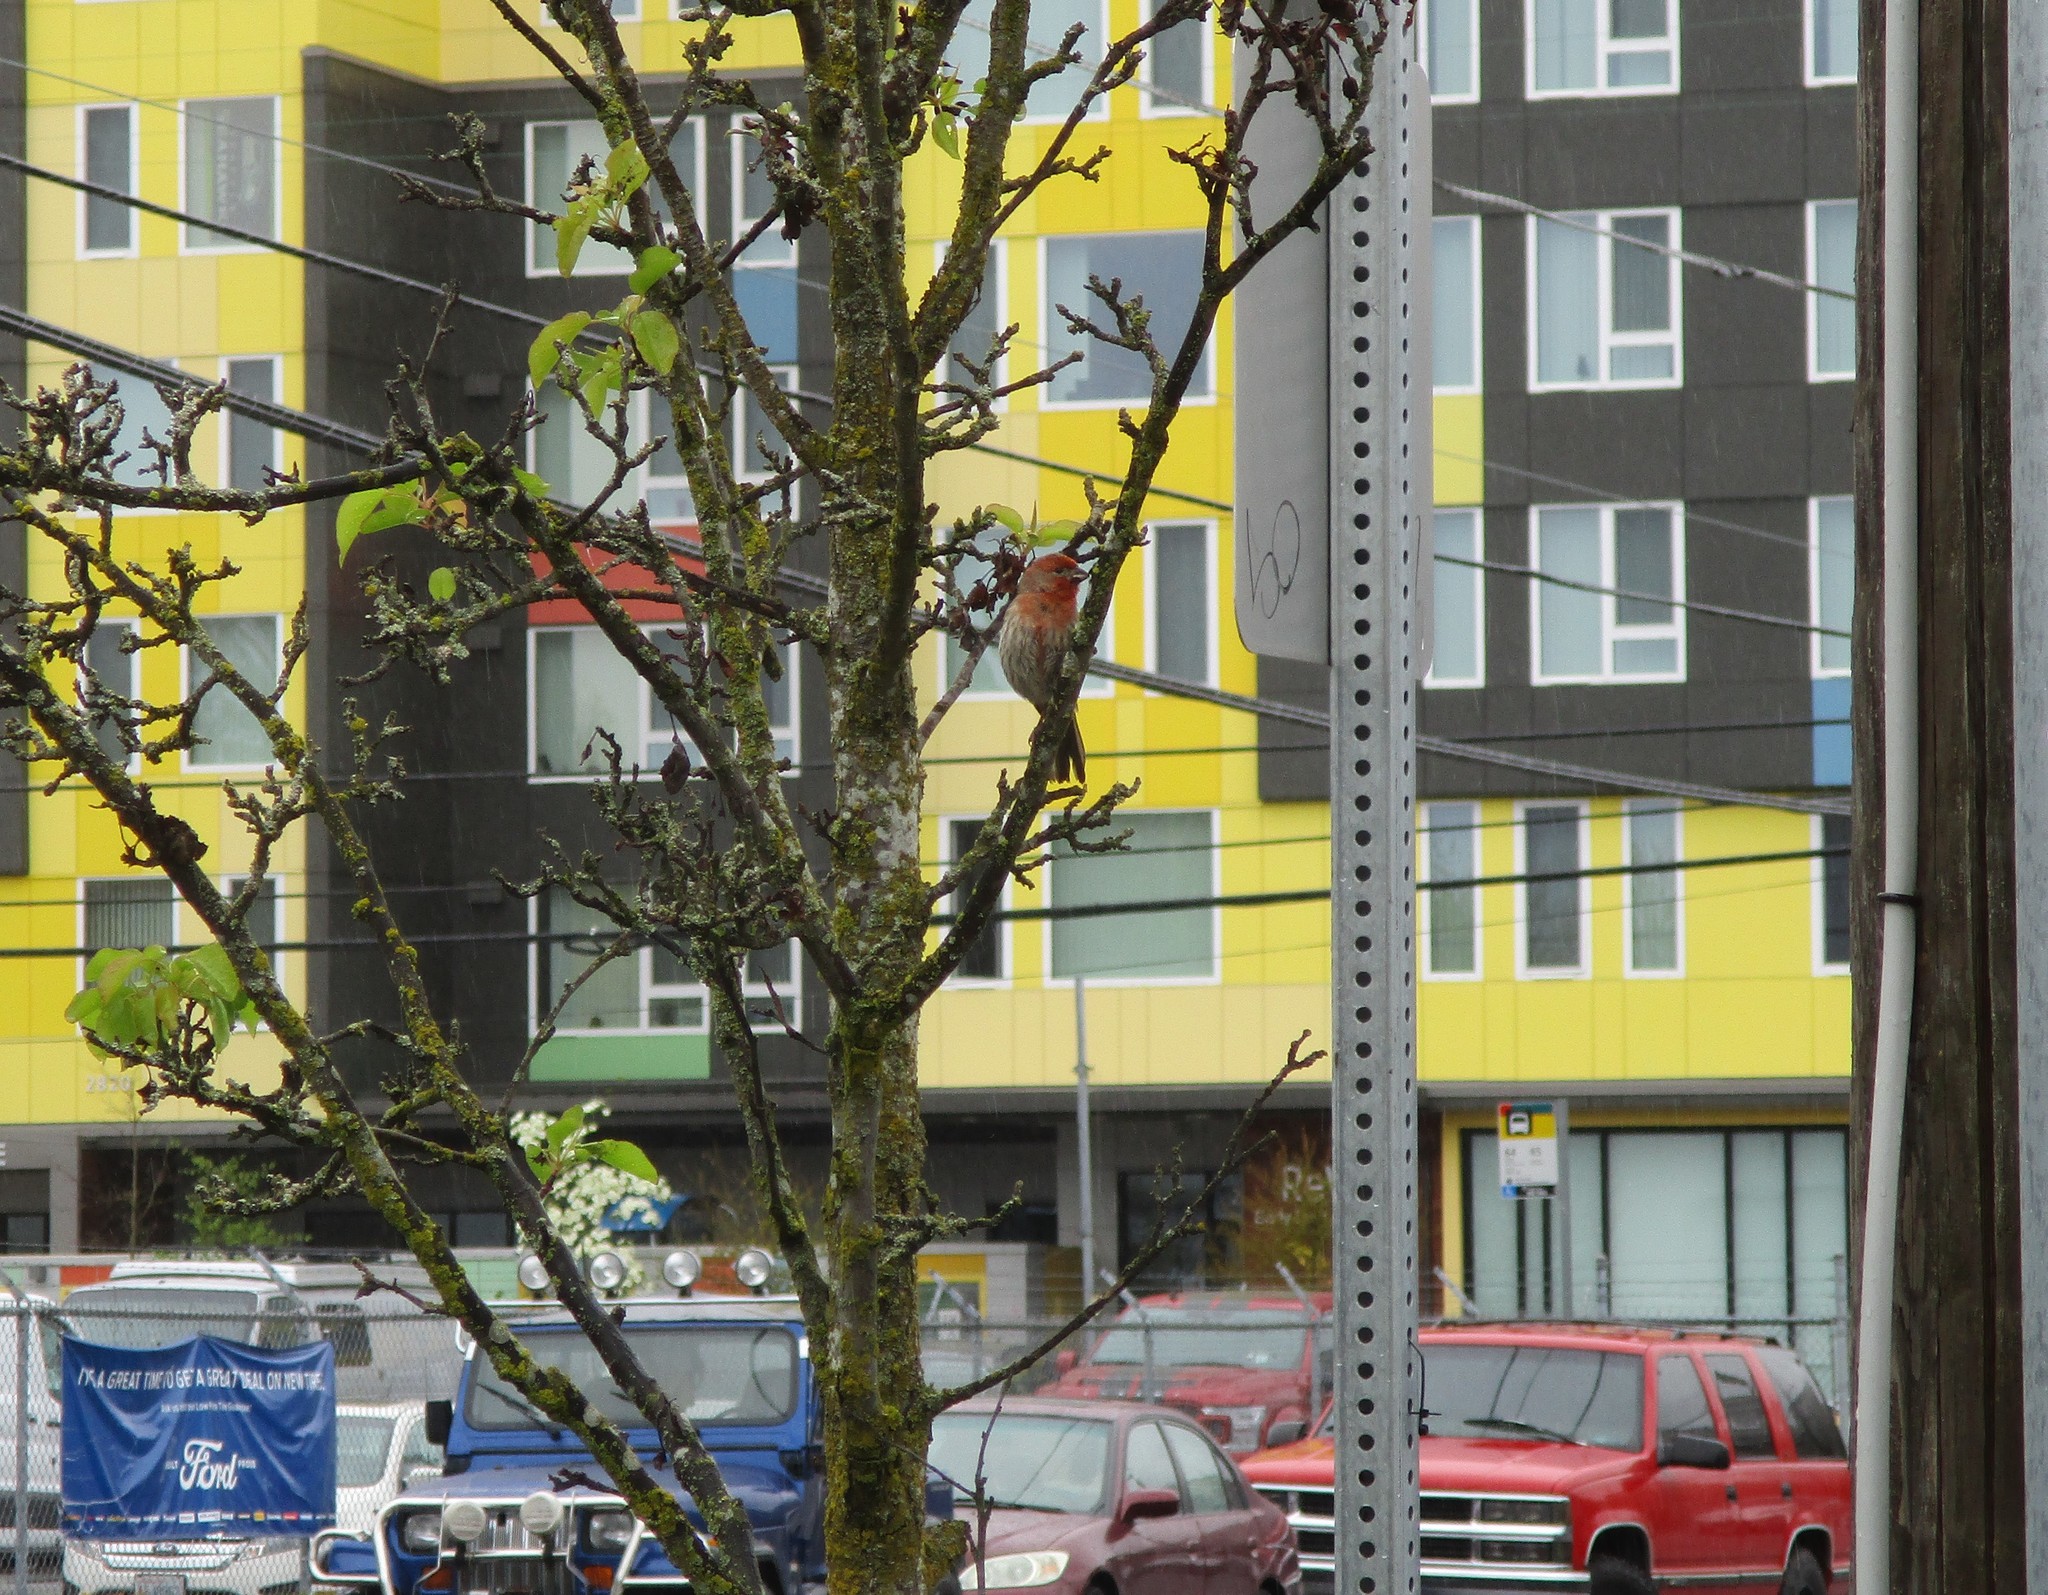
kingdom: Animalia
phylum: Chordata
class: Aves
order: Passeriformes
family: Fringillidae
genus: Haemorhous
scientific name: Haemorhous mexicanus
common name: House finch
